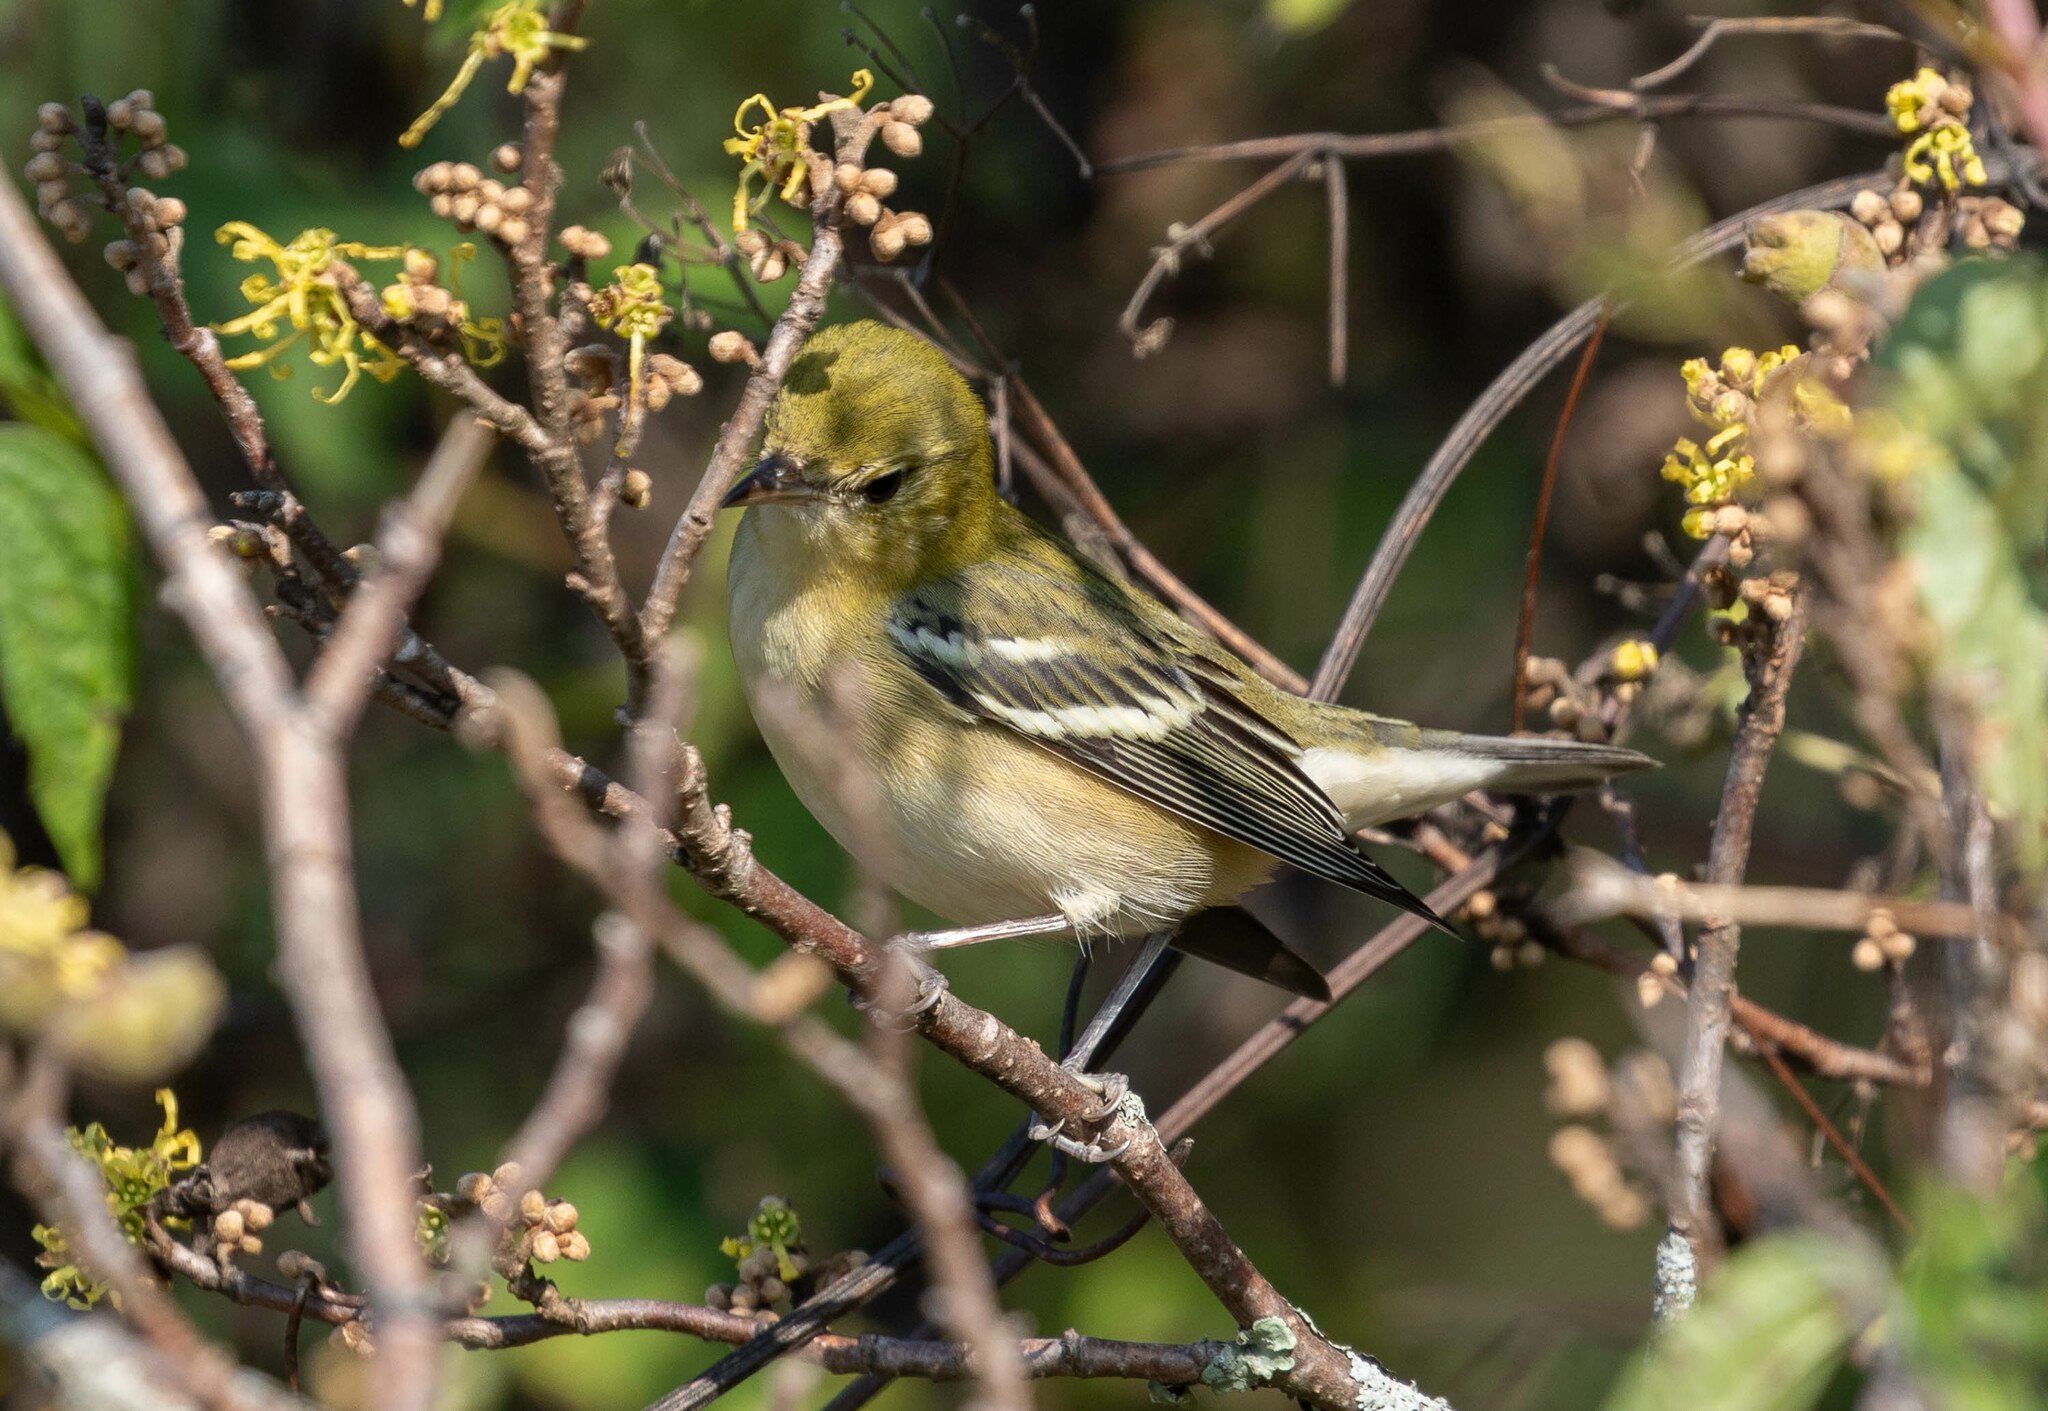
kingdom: Animalia
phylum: Chordata
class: Aves
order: Passeriformes
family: Parulidae
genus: Setophaga
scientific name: Setophaga castanea
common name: Bay-breasted warbler
